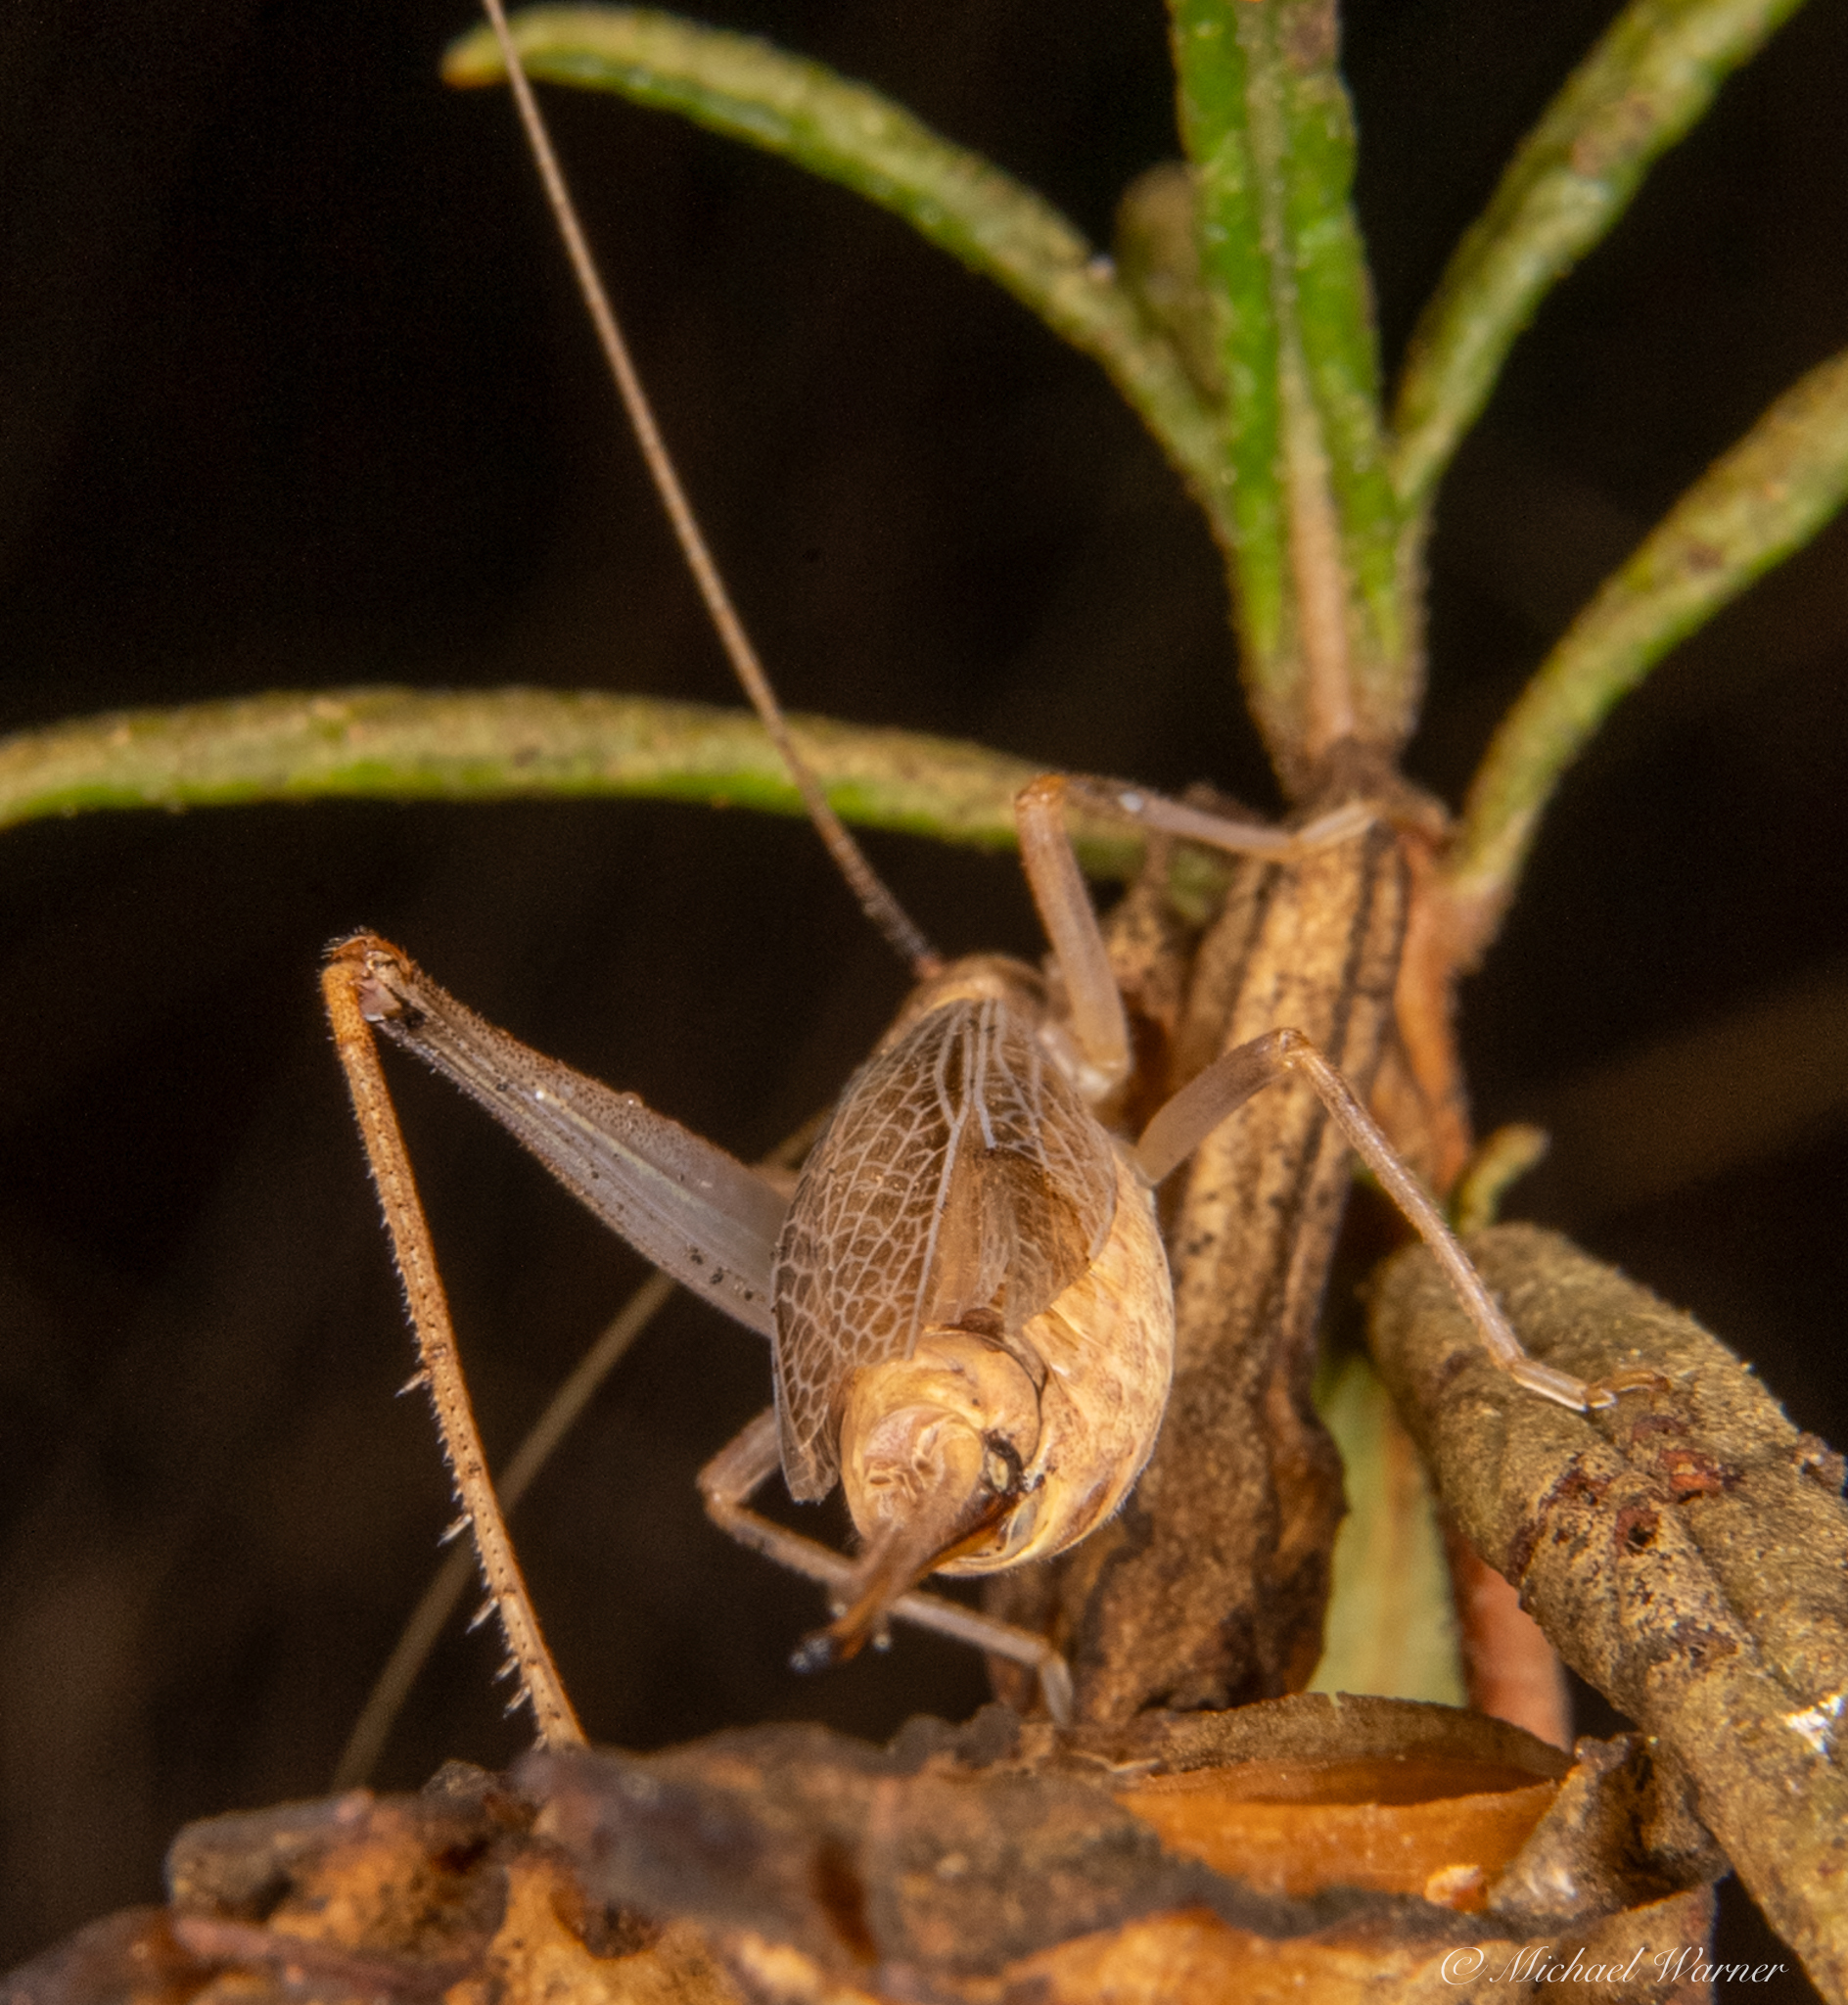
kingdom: Animalia
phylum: Arthropoda
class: Insecta
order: Orthoptera
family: Gryllidae
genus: Oecanthus
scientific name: Oecanthus californicus
